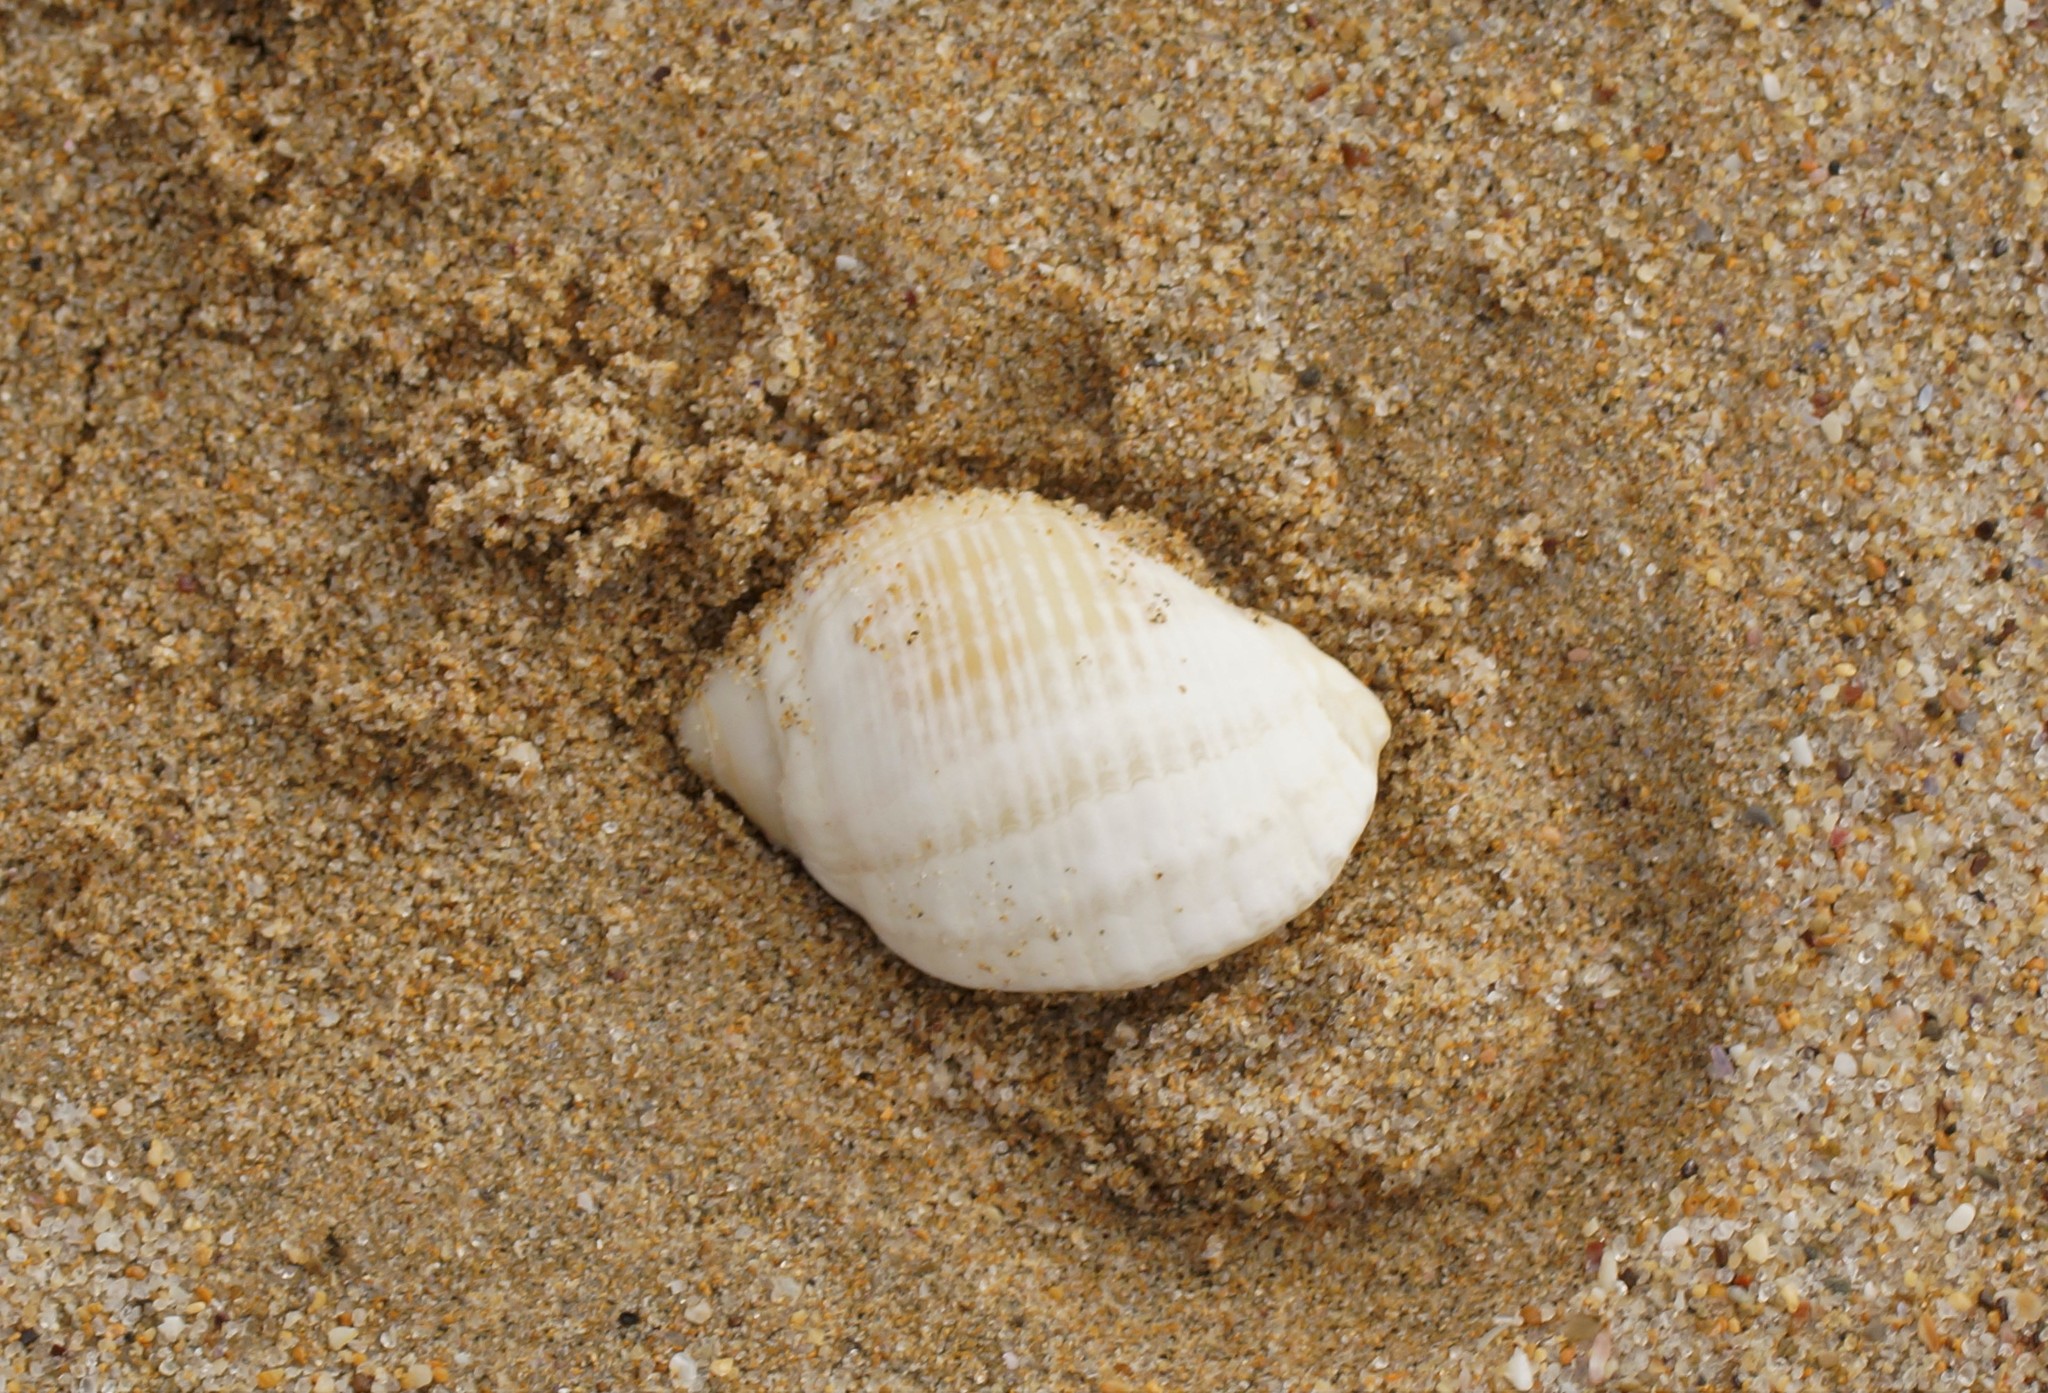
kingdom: Animalia
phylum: Mollusca
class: Gastropoda
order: Neogastropoda
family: Muricidae
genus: Dicathais
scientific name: Dicathais orbita
